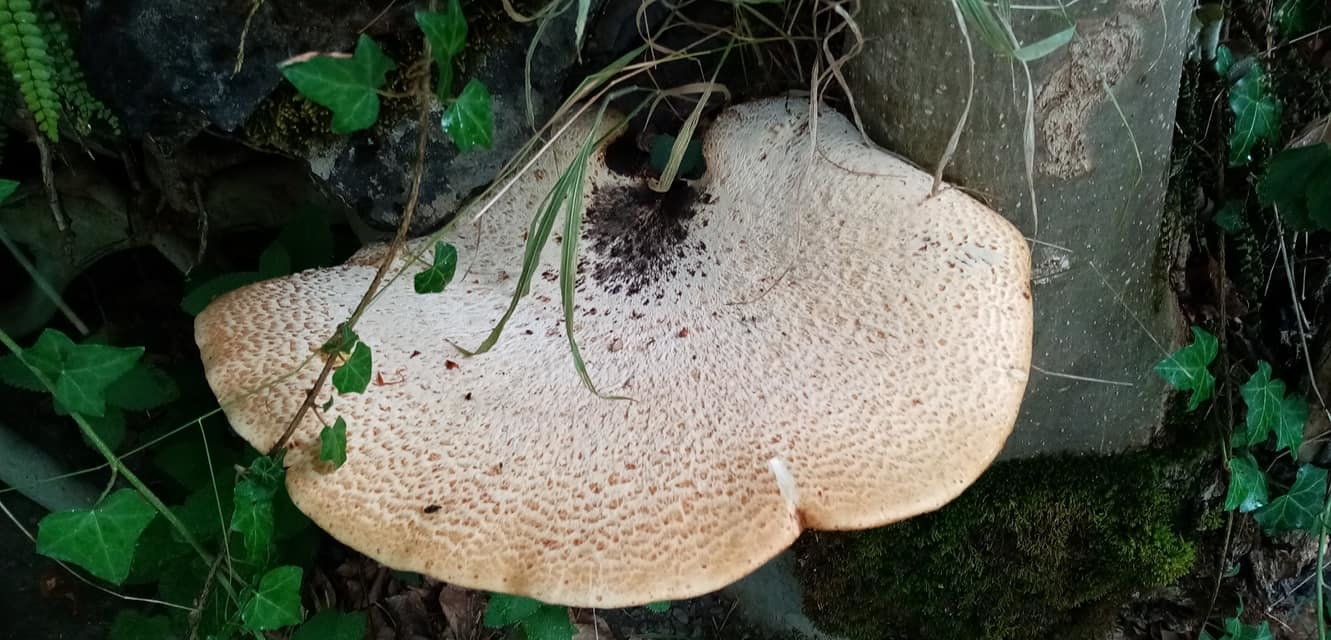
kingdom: Fungi
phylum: Basidiomycota
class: Agaricomycetes
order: Polyporales
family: Polyporaceae
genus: Cerioporus
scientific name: Cerioporus squamosus
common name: Dryad's saddle
